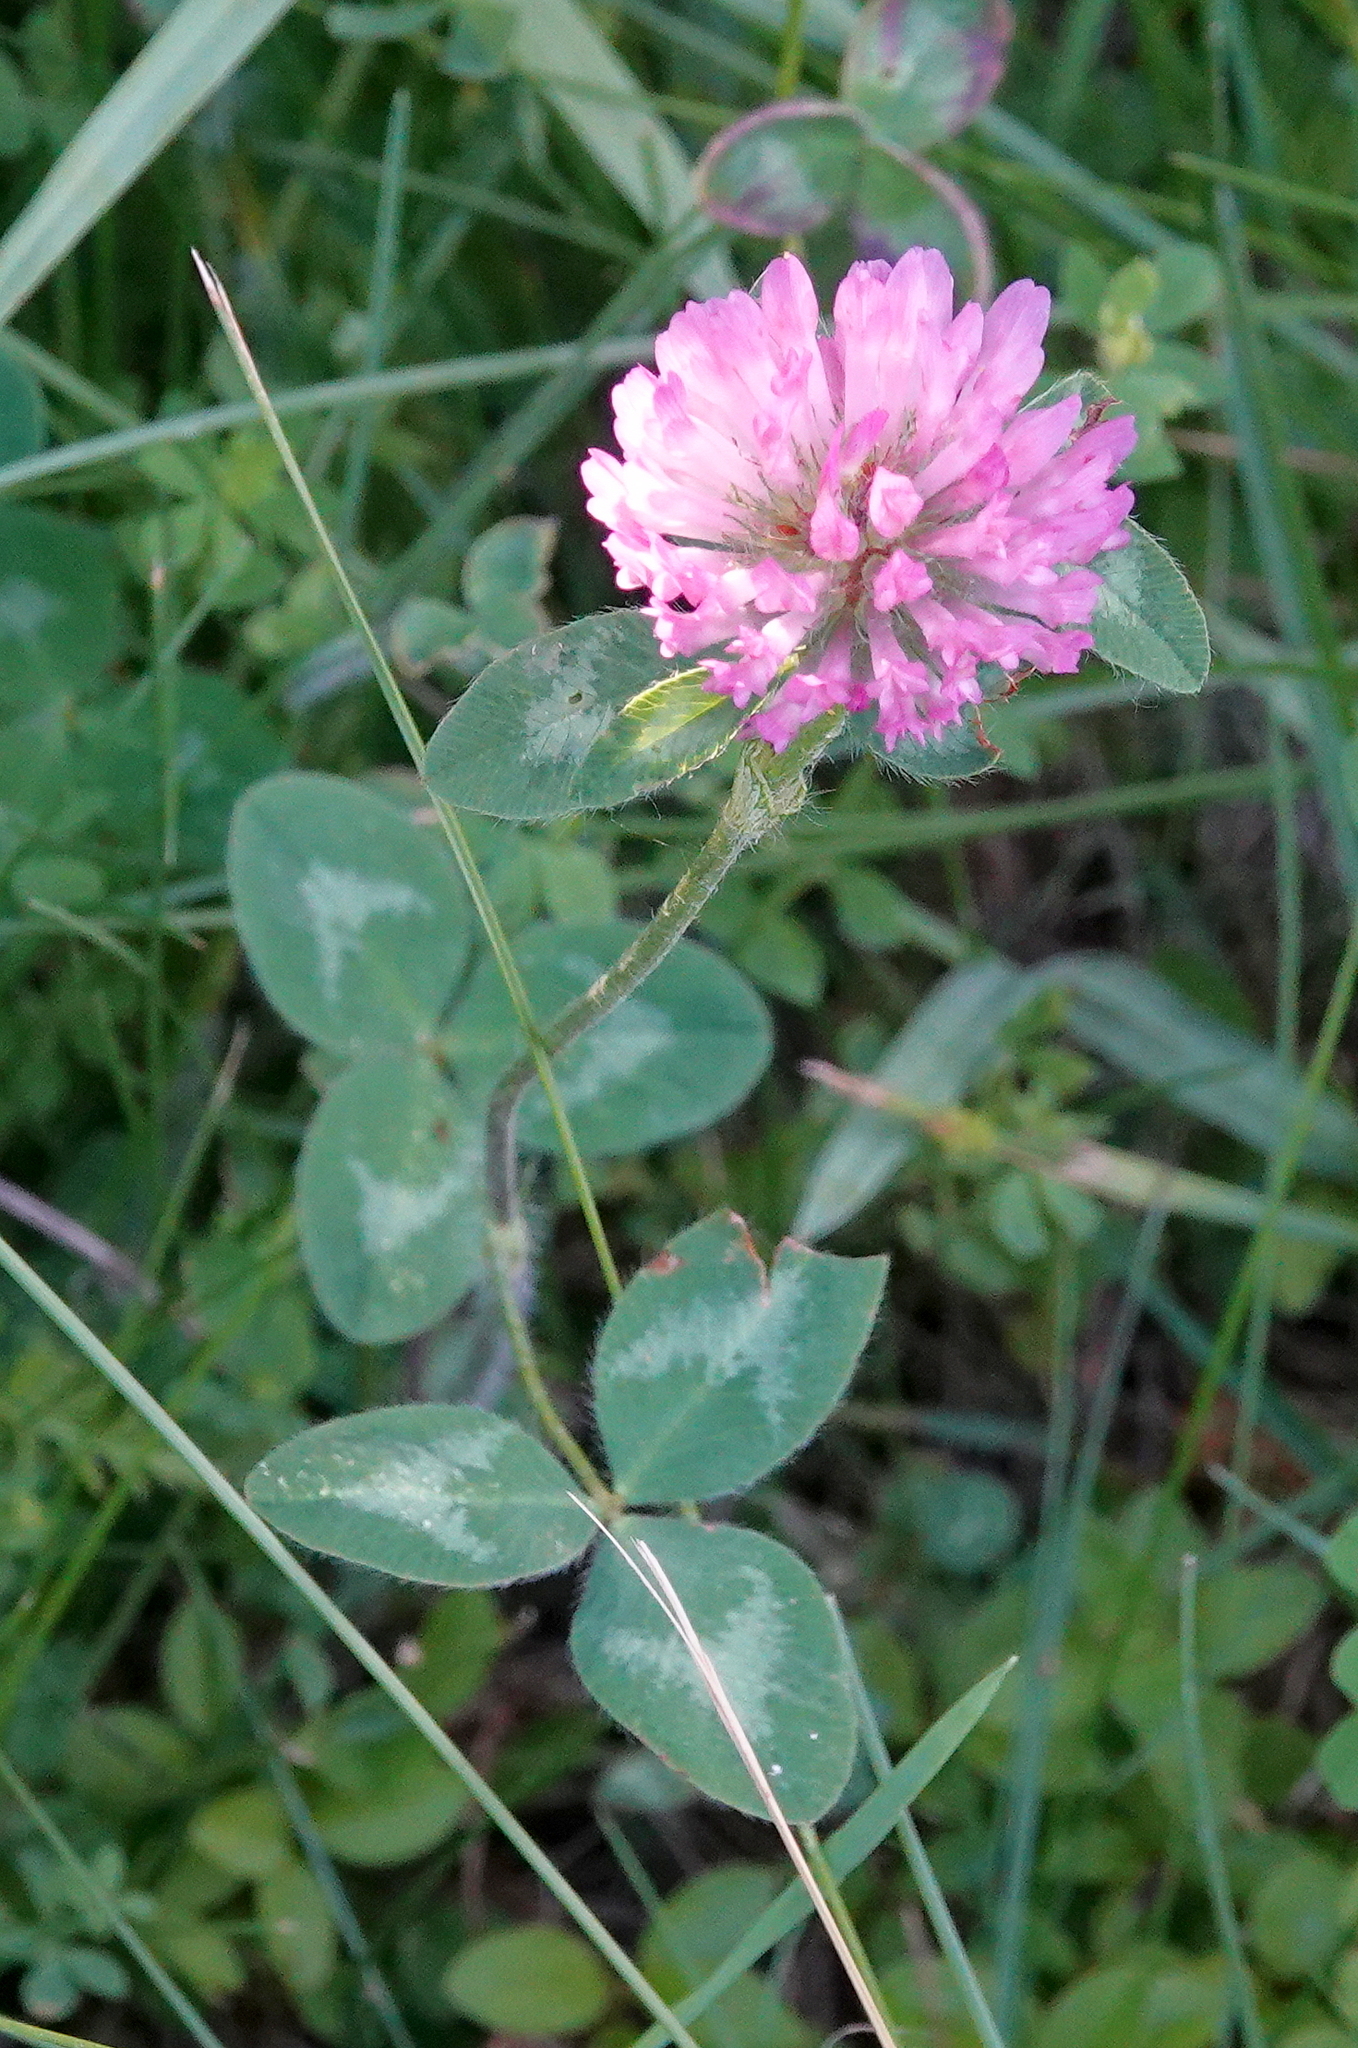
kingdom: Plantae
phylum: Tracheophyta
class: Magnoliopsida
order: Fabales
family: Fabaceae
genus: Trifolium
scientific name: Trifolium pratense
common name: Red clover
